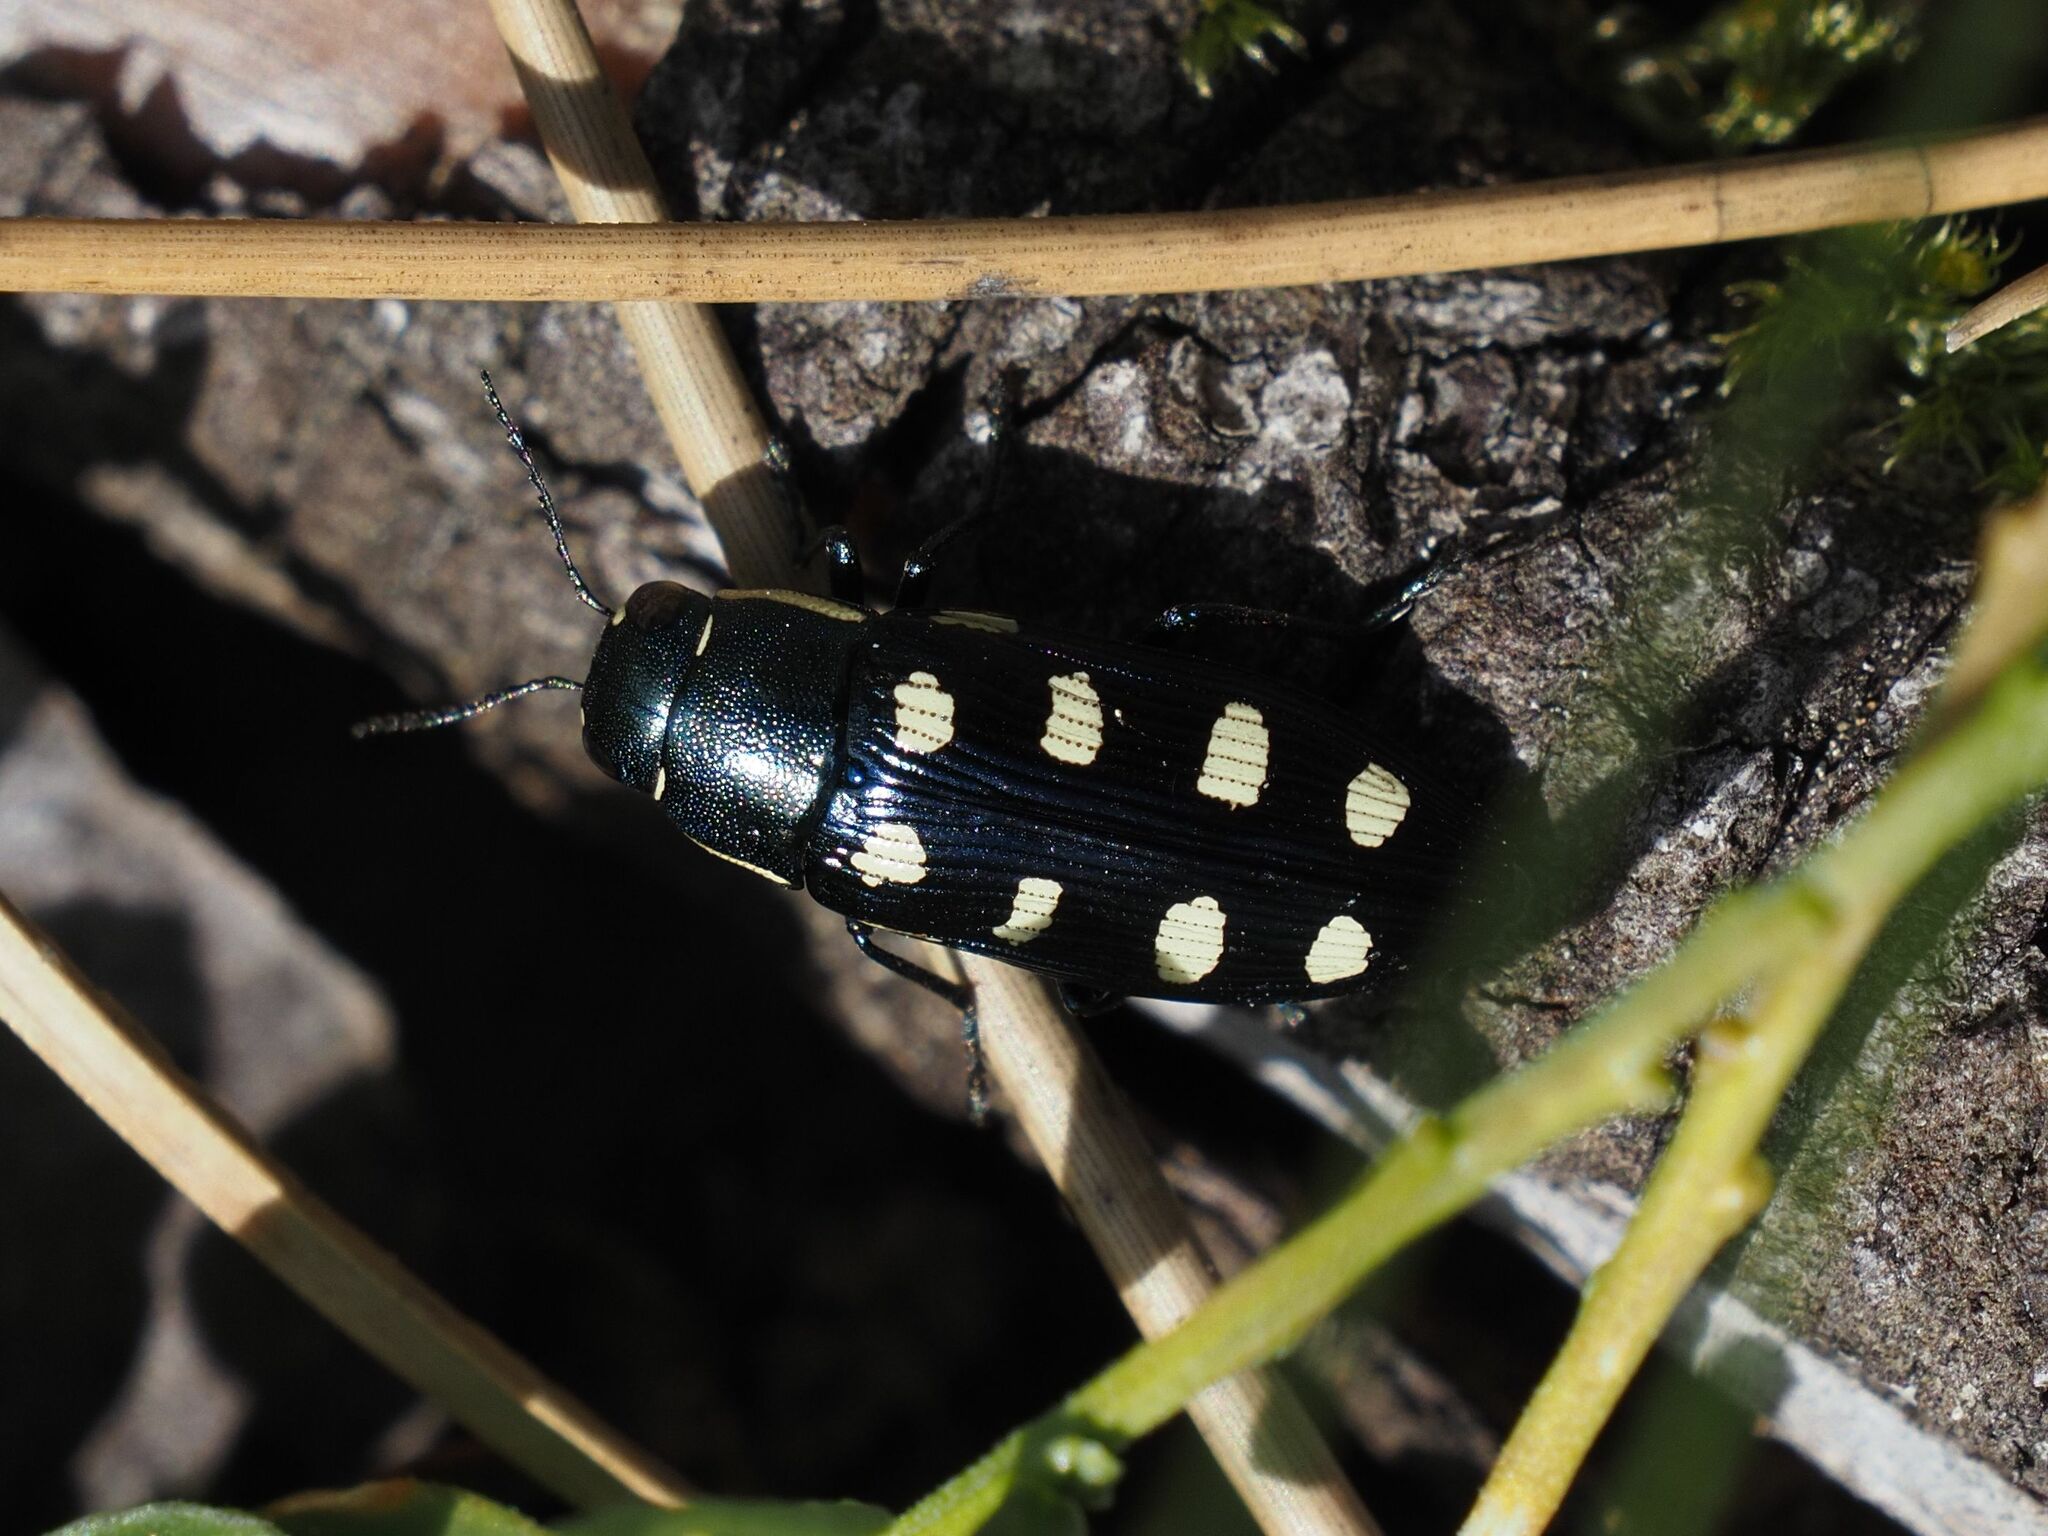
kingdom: Animalia
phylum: Arthropoda
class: Insecta
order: Coleoptera
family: Buprestidae
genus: Buprestis
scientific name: Buprestis octoguttata
